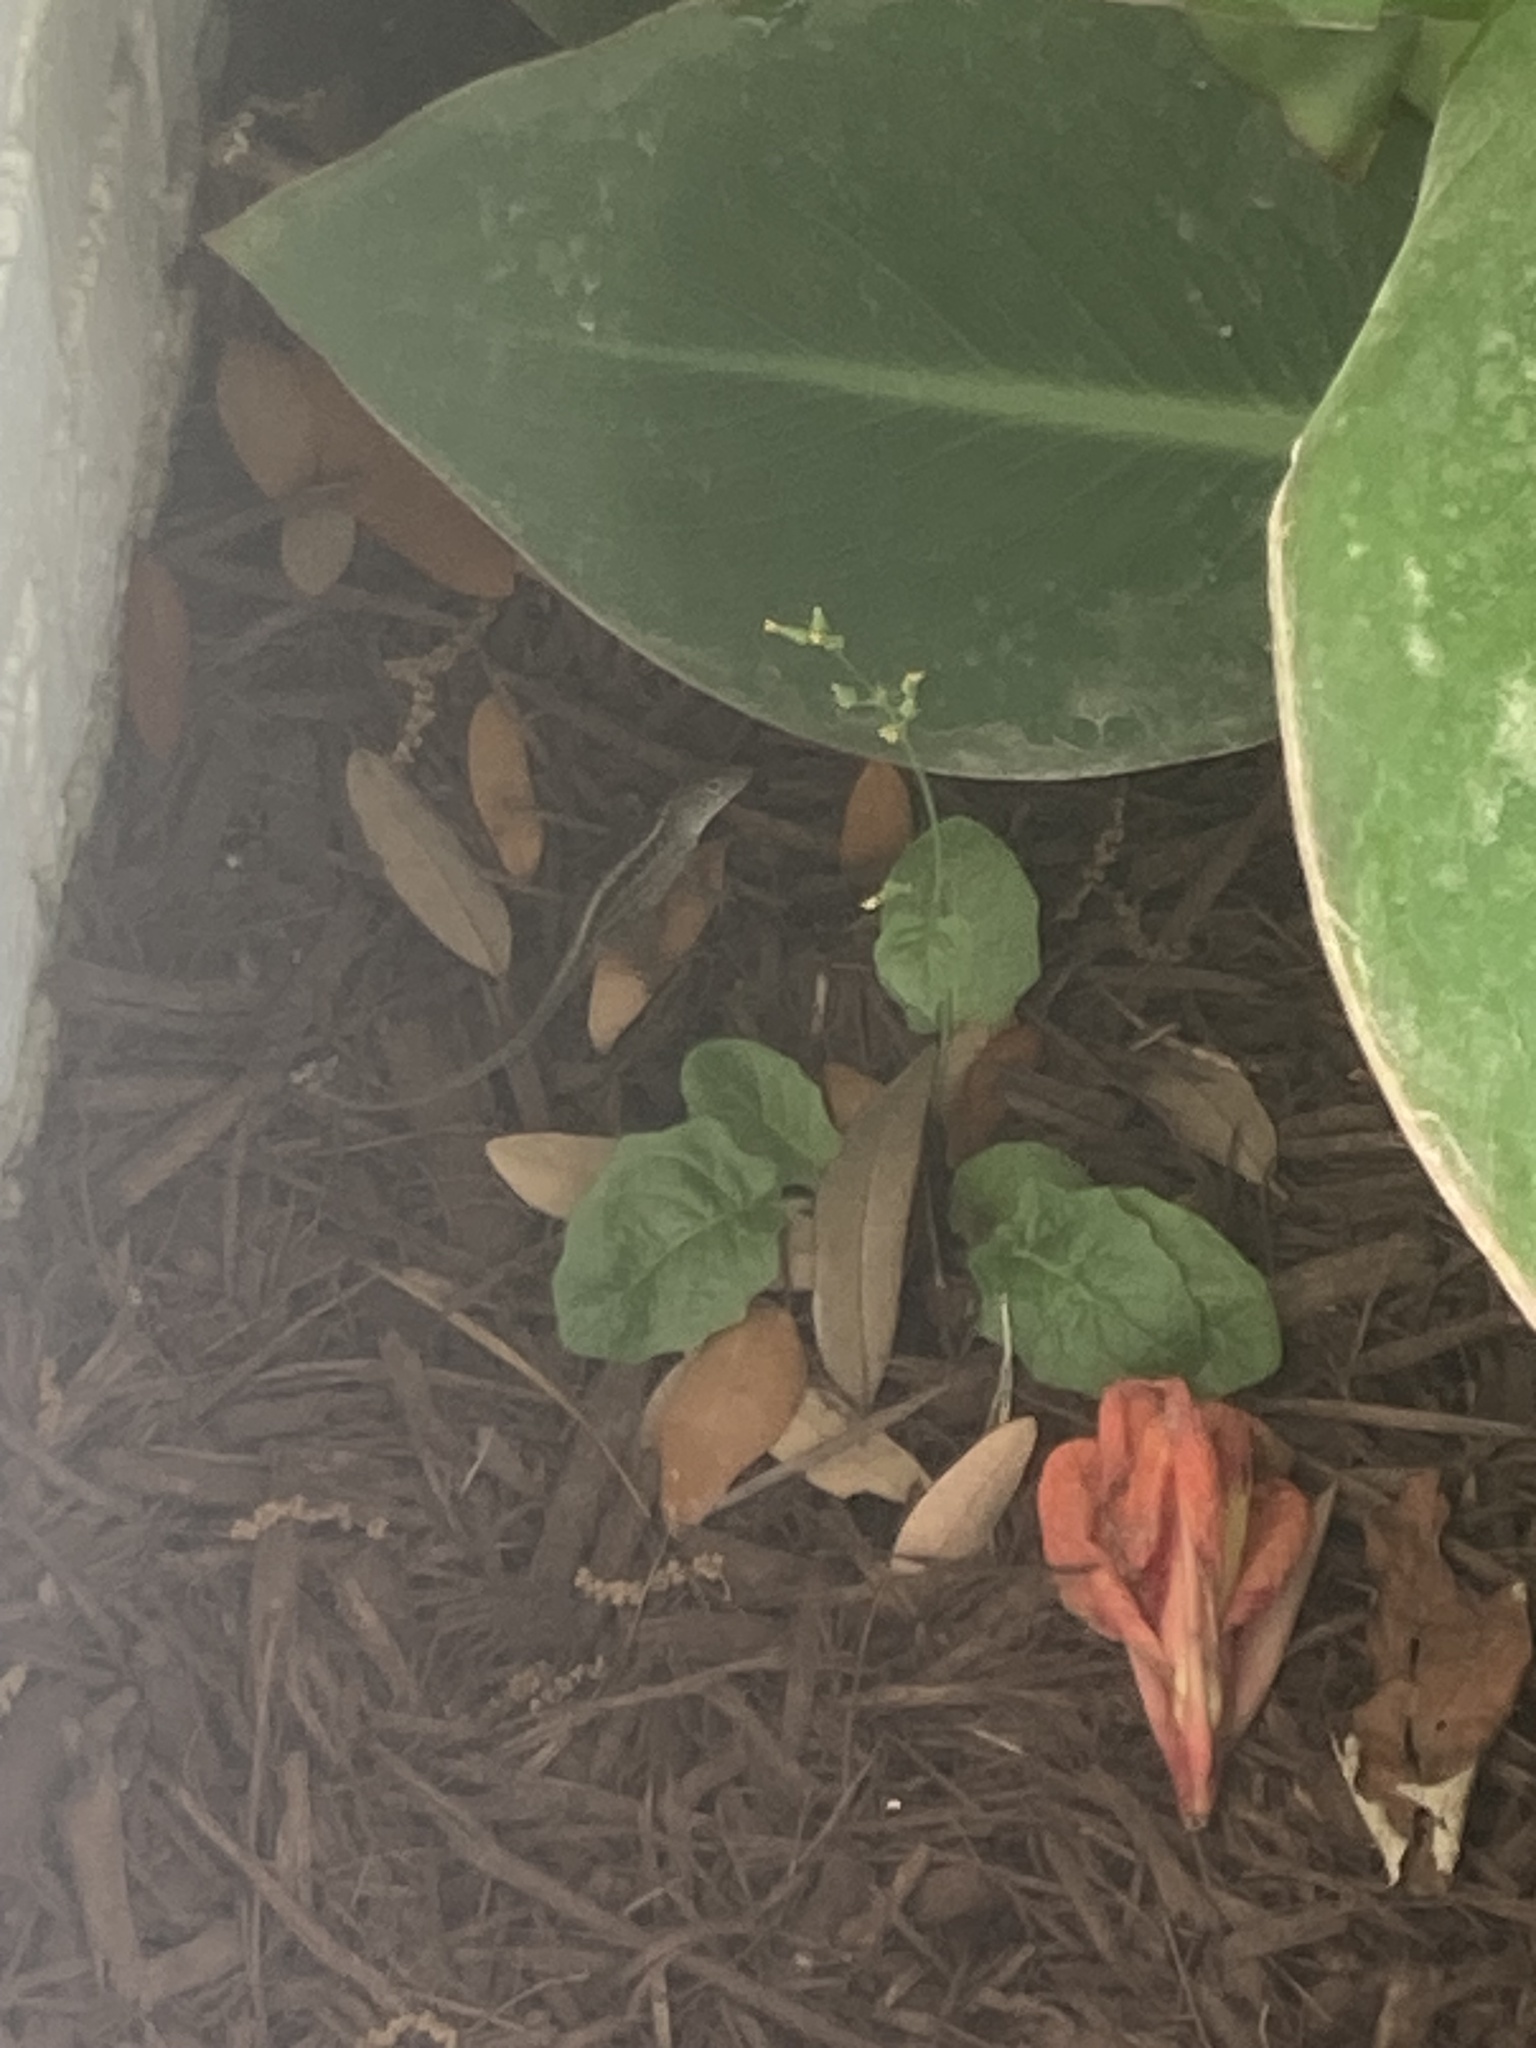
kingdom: Animalia
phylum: Chordata
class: Squamata
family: Dactyloidae
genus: Anolis
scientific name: Anolis sagrei
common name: Brown anole
